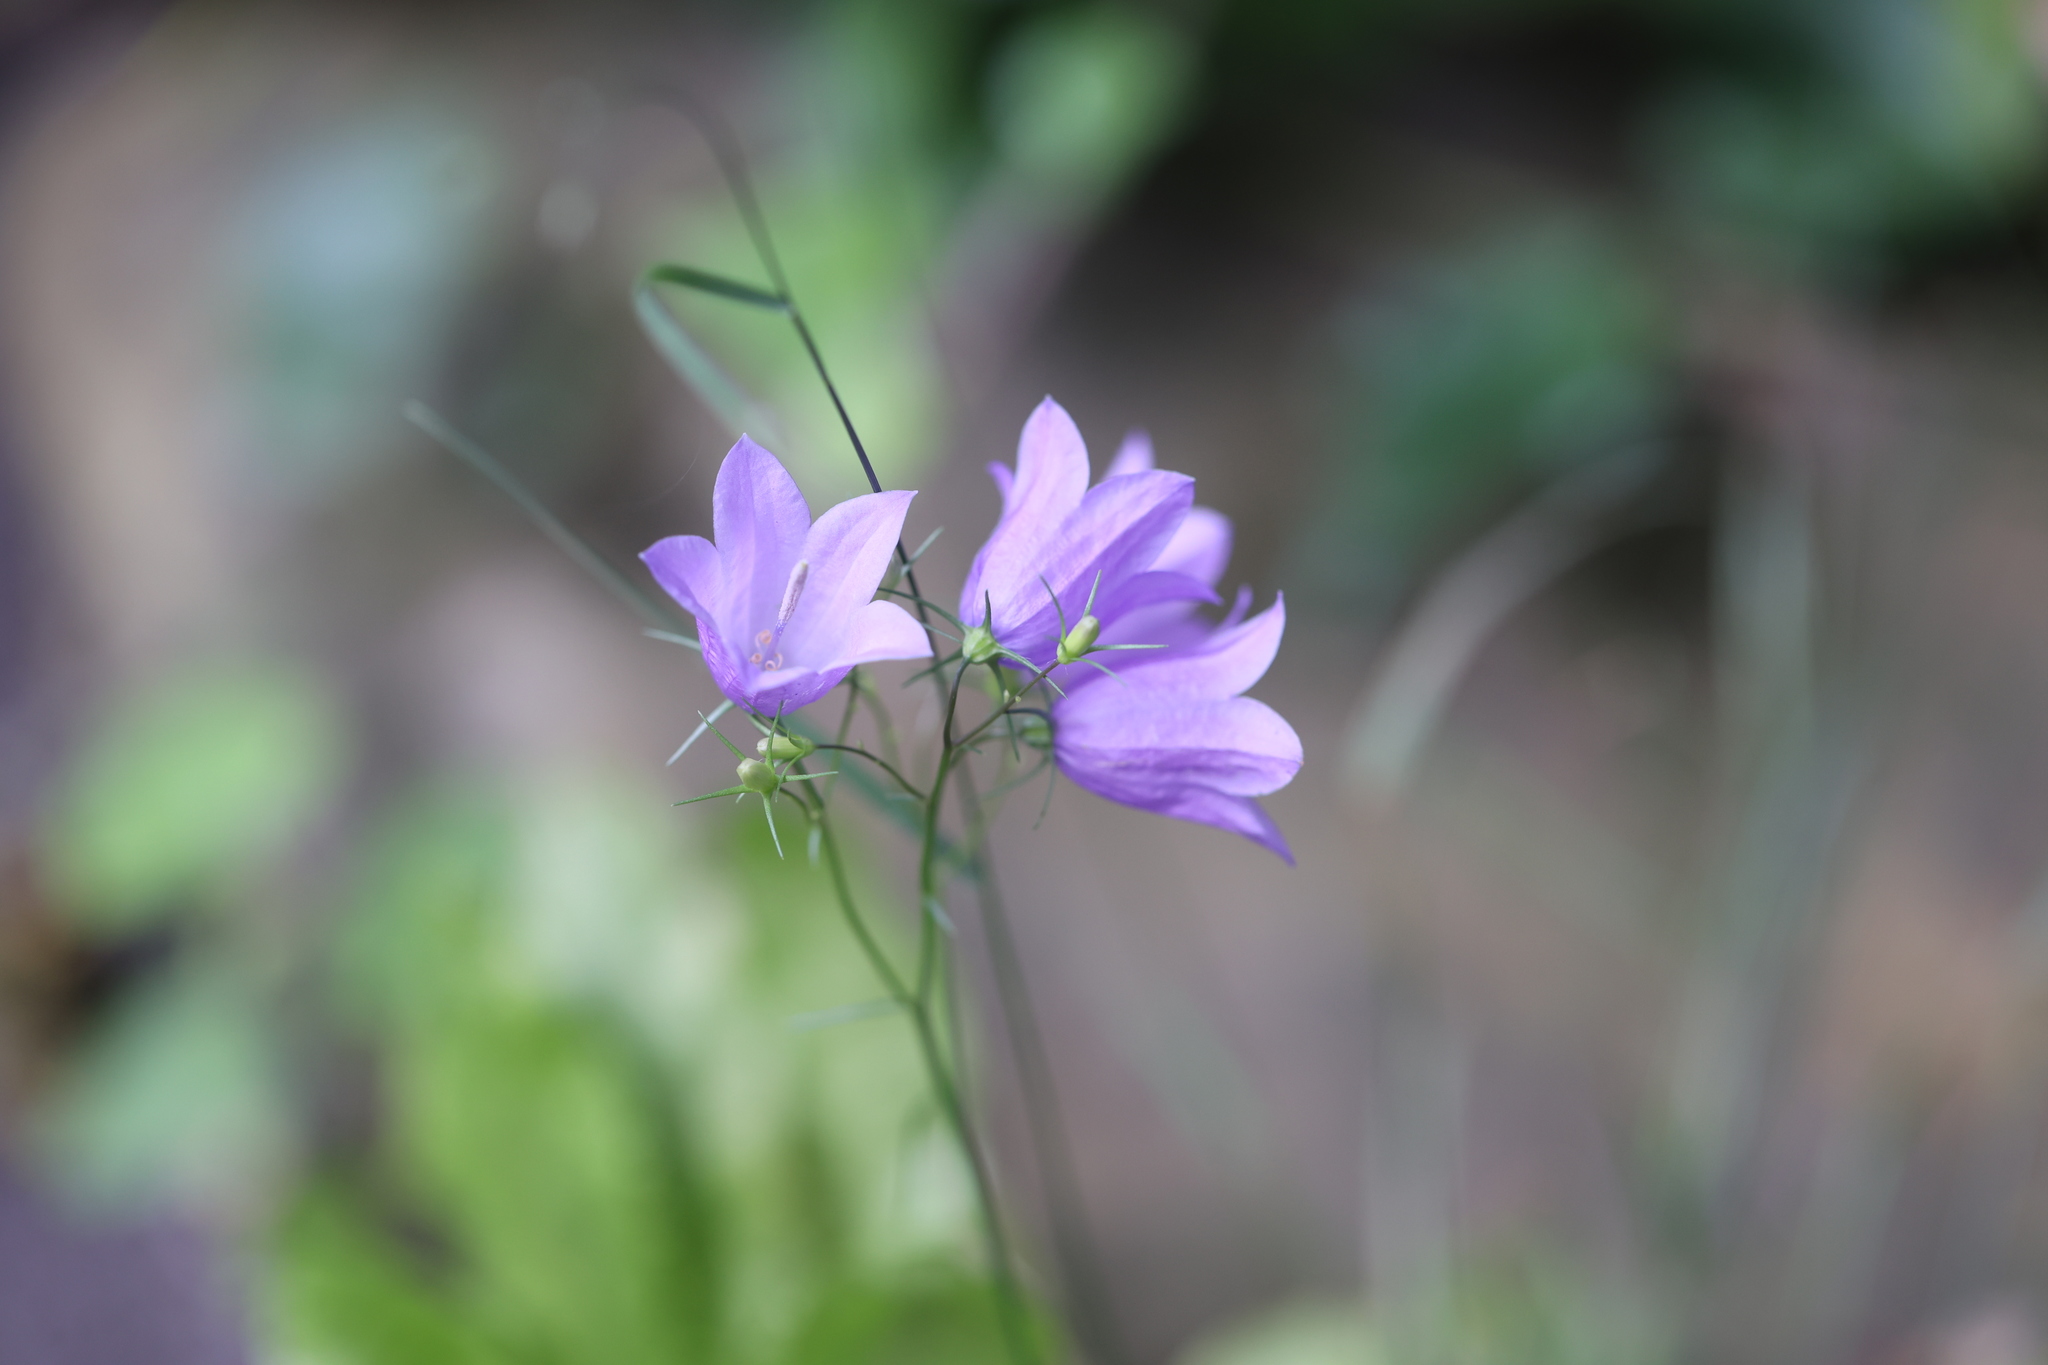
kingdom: Plantae
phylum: Tracheophyta
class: Magnoliopsida
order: Asterales
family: Campanulaceae
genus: Campanula
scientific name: Campanula rotundifolia
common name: Harebell
